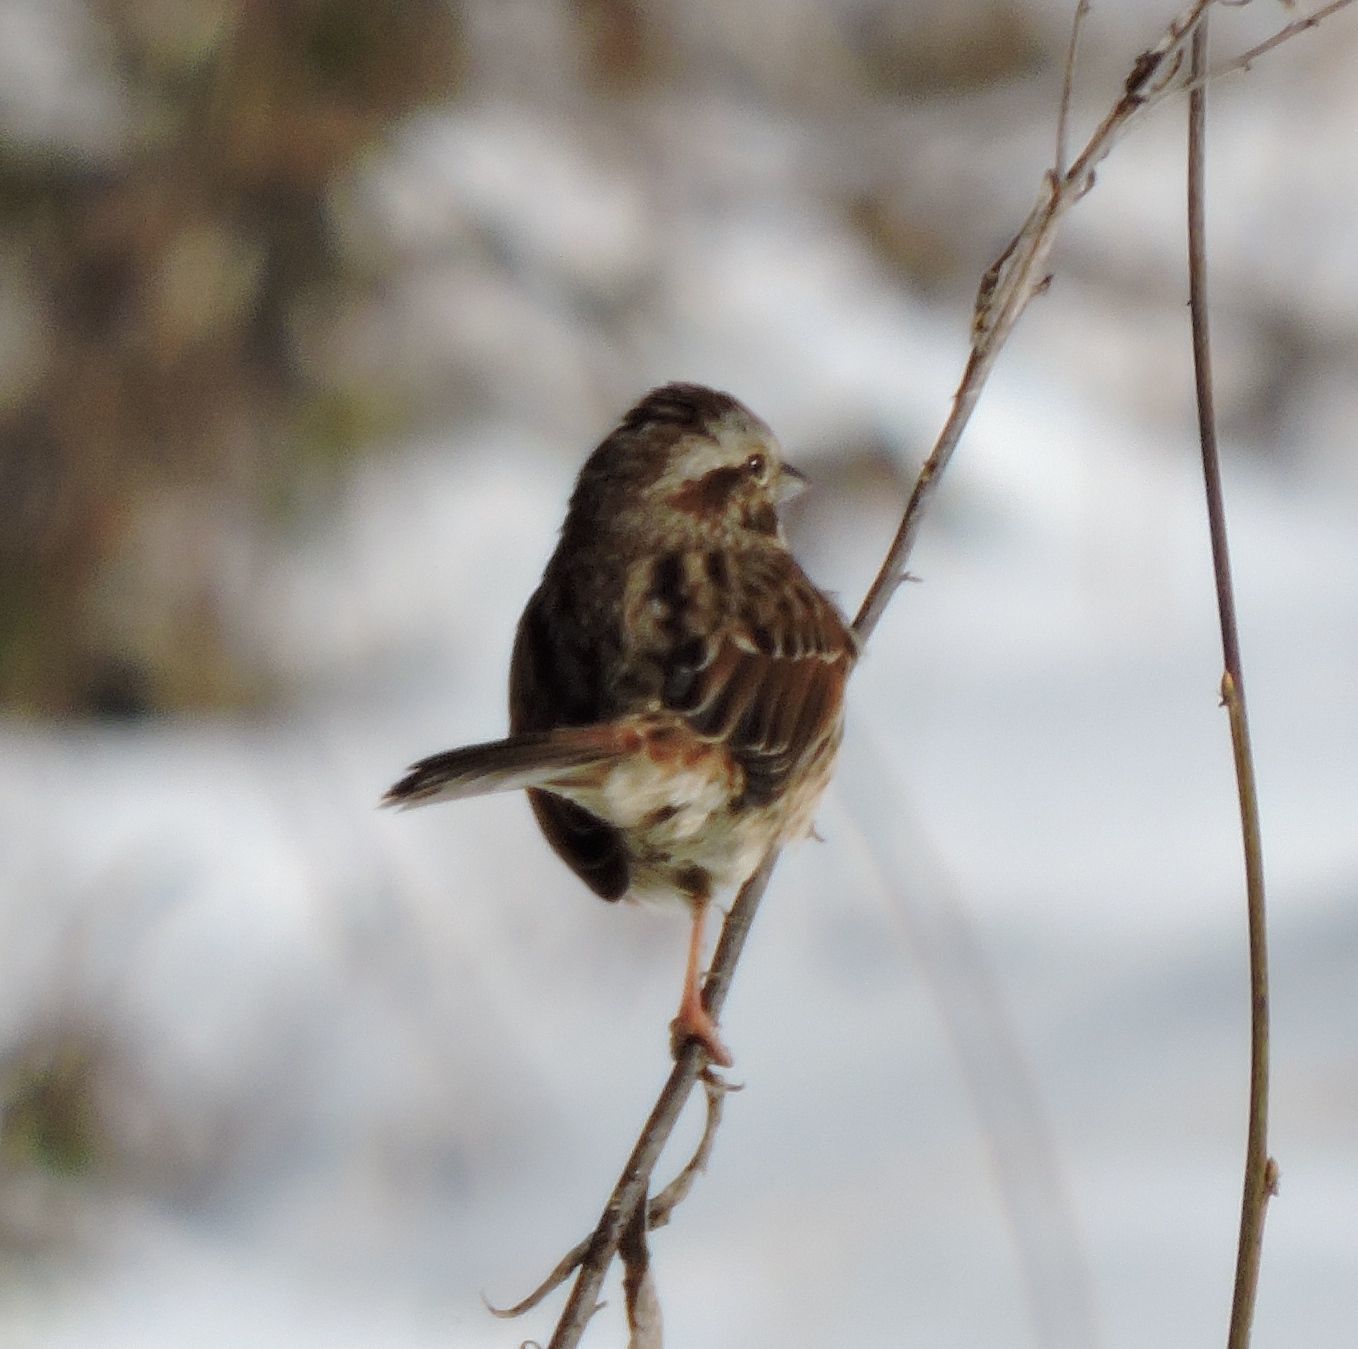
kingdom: Animalia
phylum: Chordata
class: Aves
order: Passeriformes
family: Passerellidae
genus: Melospiza
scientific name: Melospiza melodia
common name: Song sparrow
